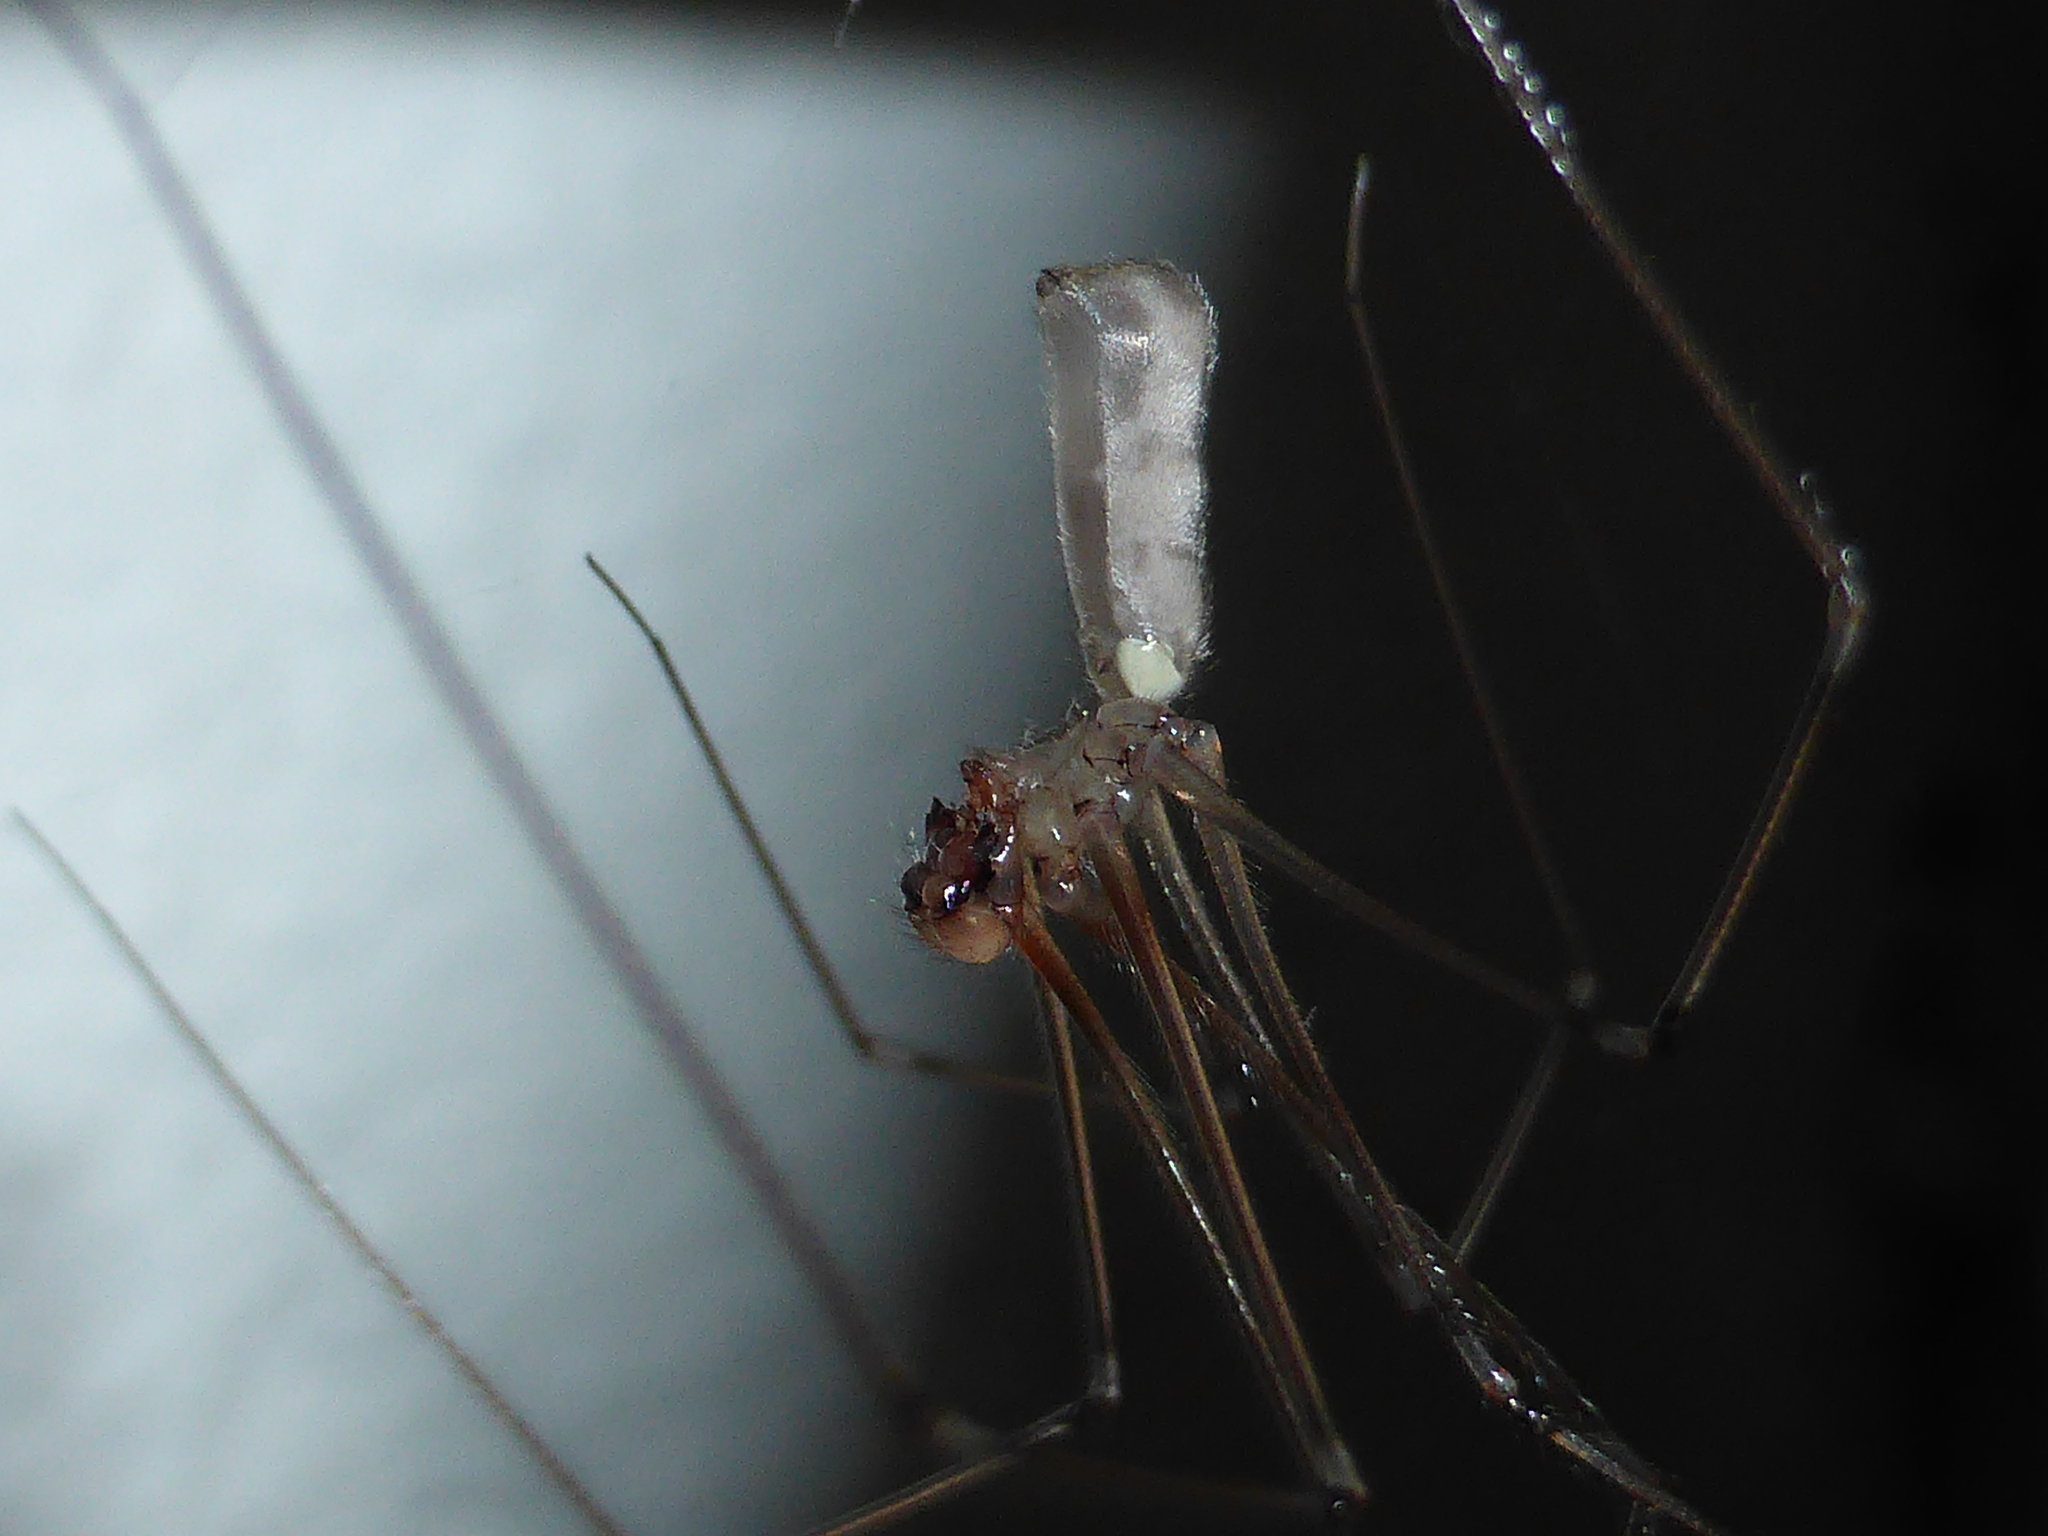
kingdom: Animalia
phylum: Arthropoda
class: Arachnida
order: Araneae
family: Pholcidae
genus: Pholcus
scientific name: Pholcus phalangioides
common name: Longbodied cellar spider
